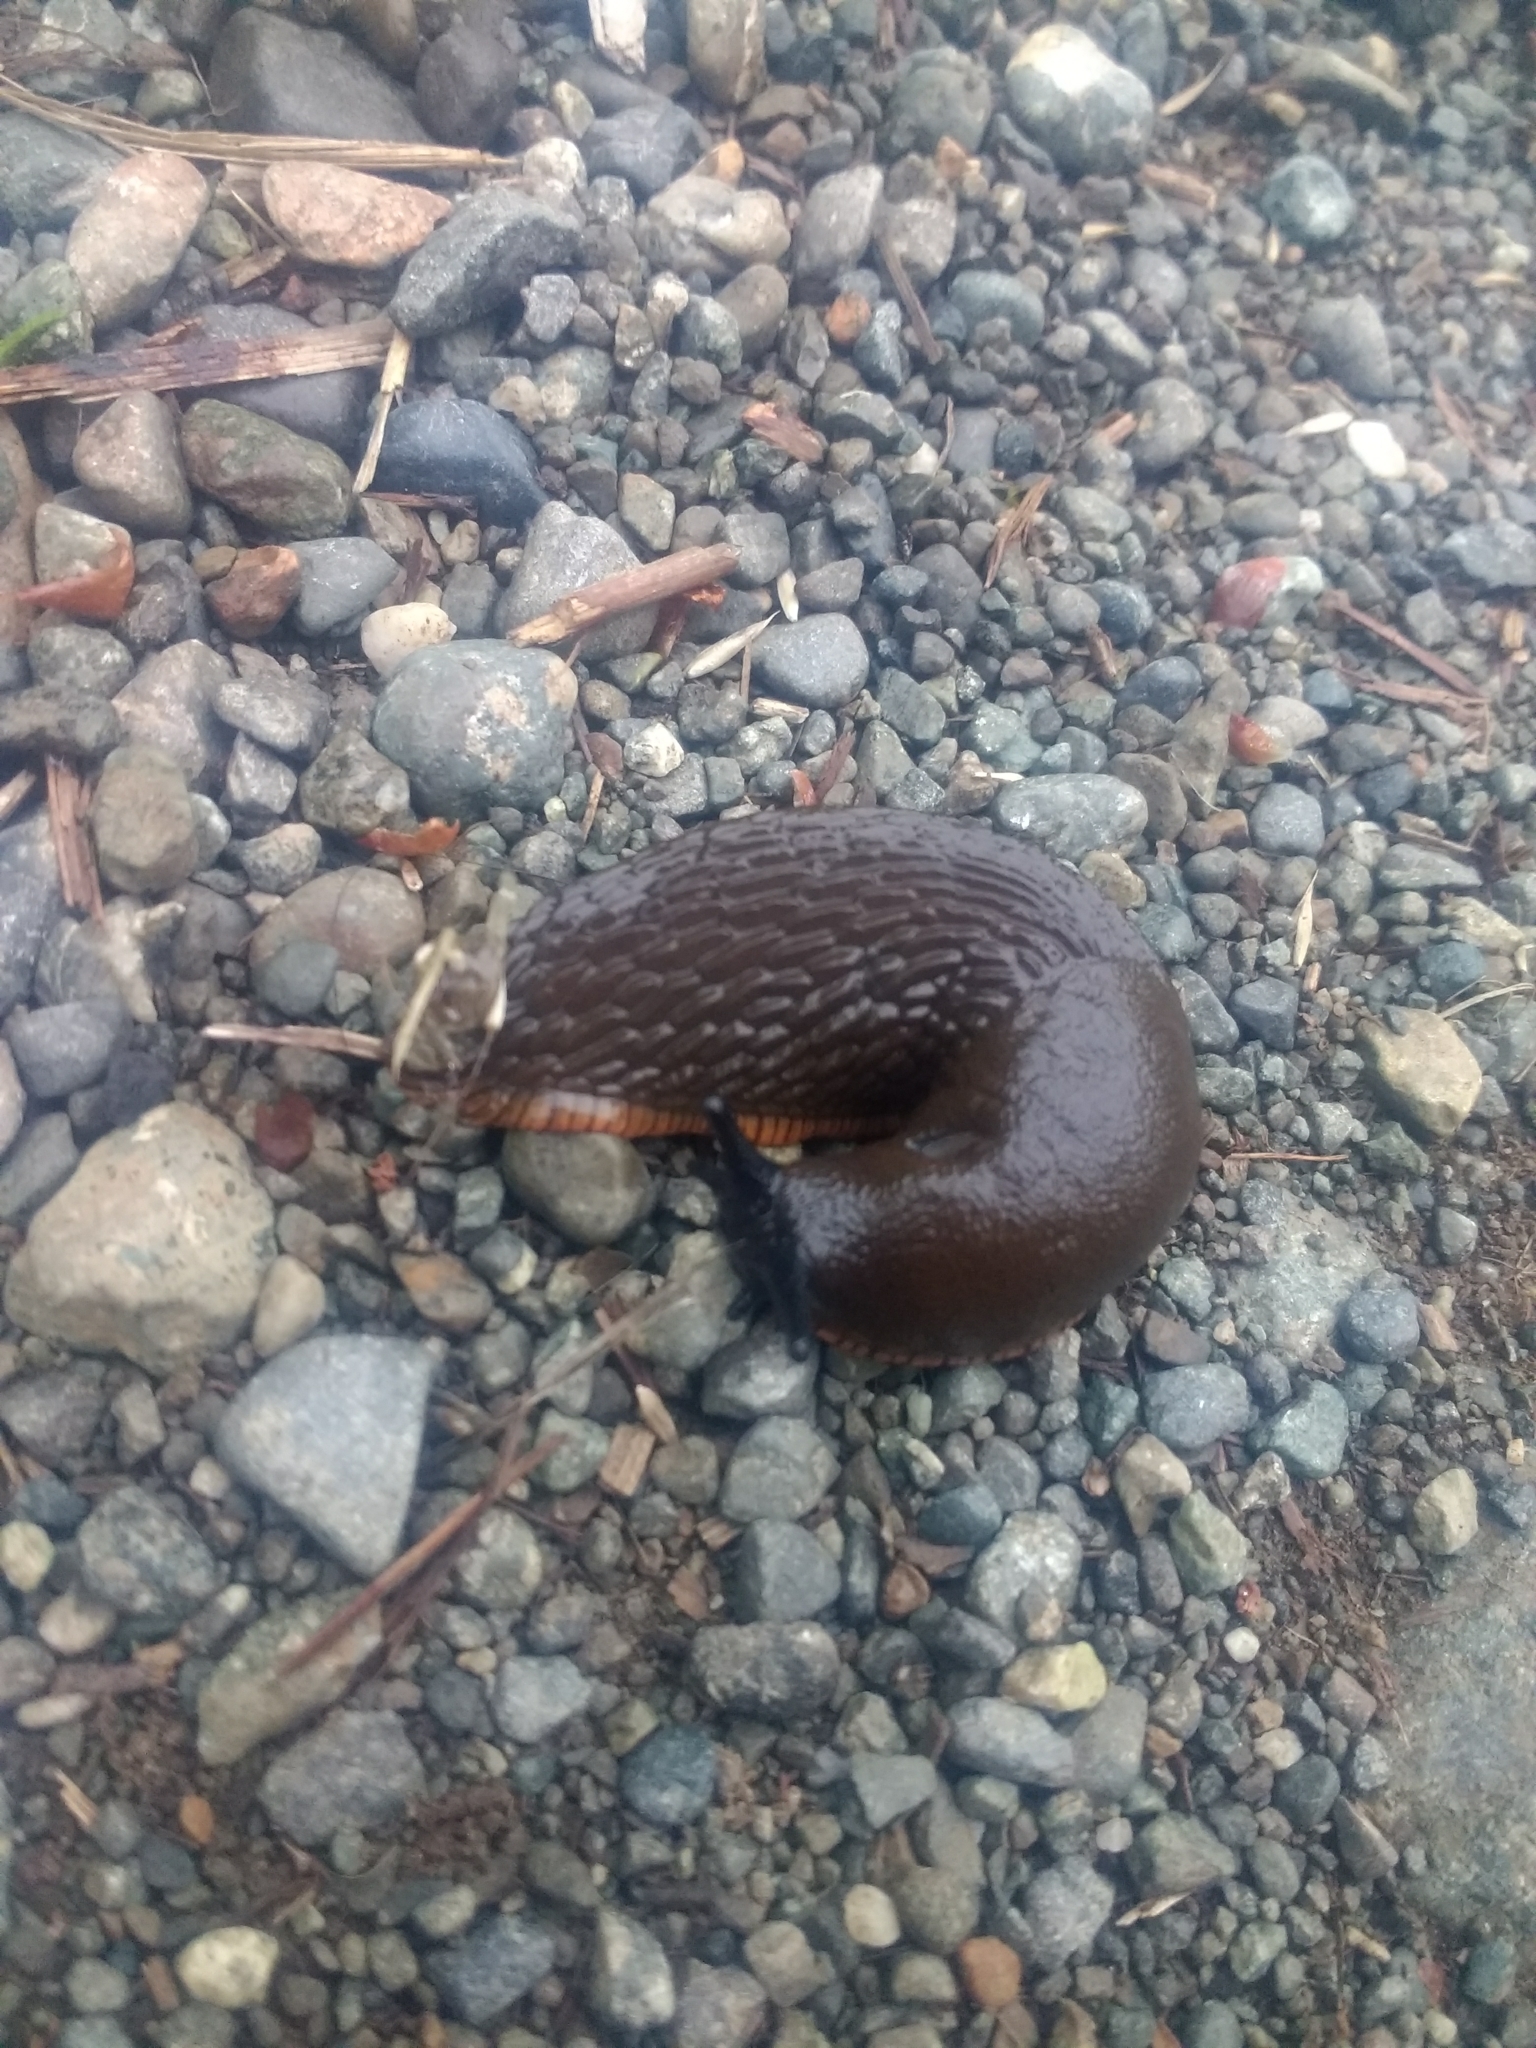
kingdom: Animalia
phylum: Mollusca
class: Gastropoda
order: Stylommatophora
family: Arionidae
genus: Arion
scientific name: Arion rufus
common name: Chocolate arion
